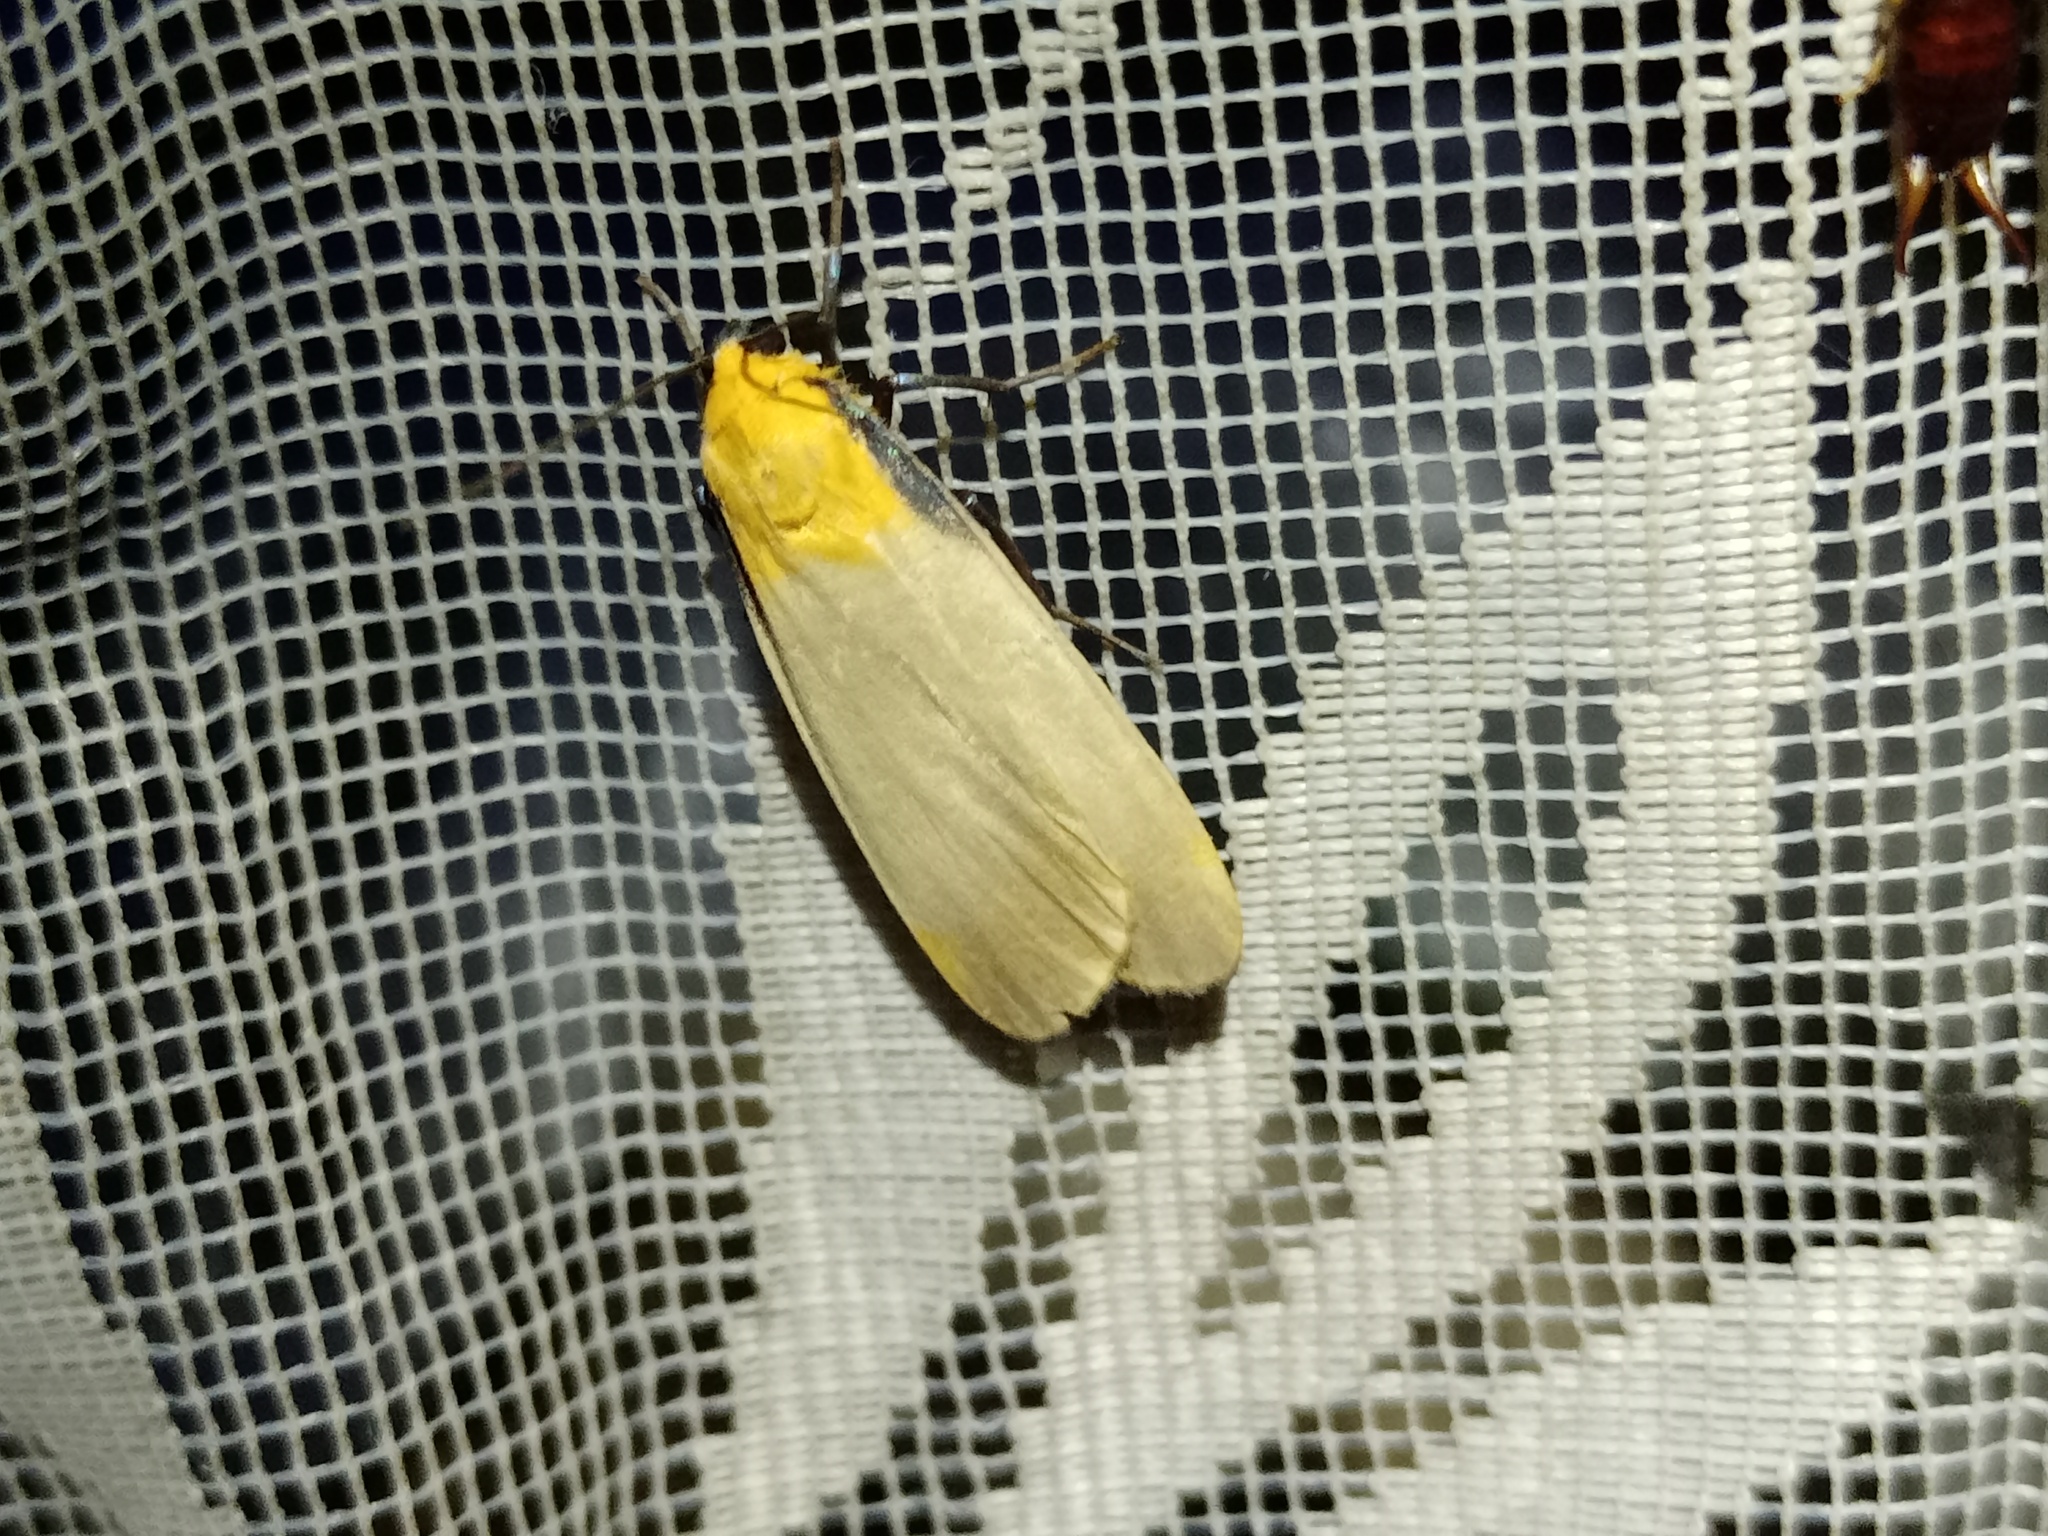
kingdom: Animalia
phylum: Arthropoda
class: Insecta
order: Lepidoptera
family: Erebidae
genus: Lithosia
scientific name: Lithosia quadra
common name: Four-spotted footman
